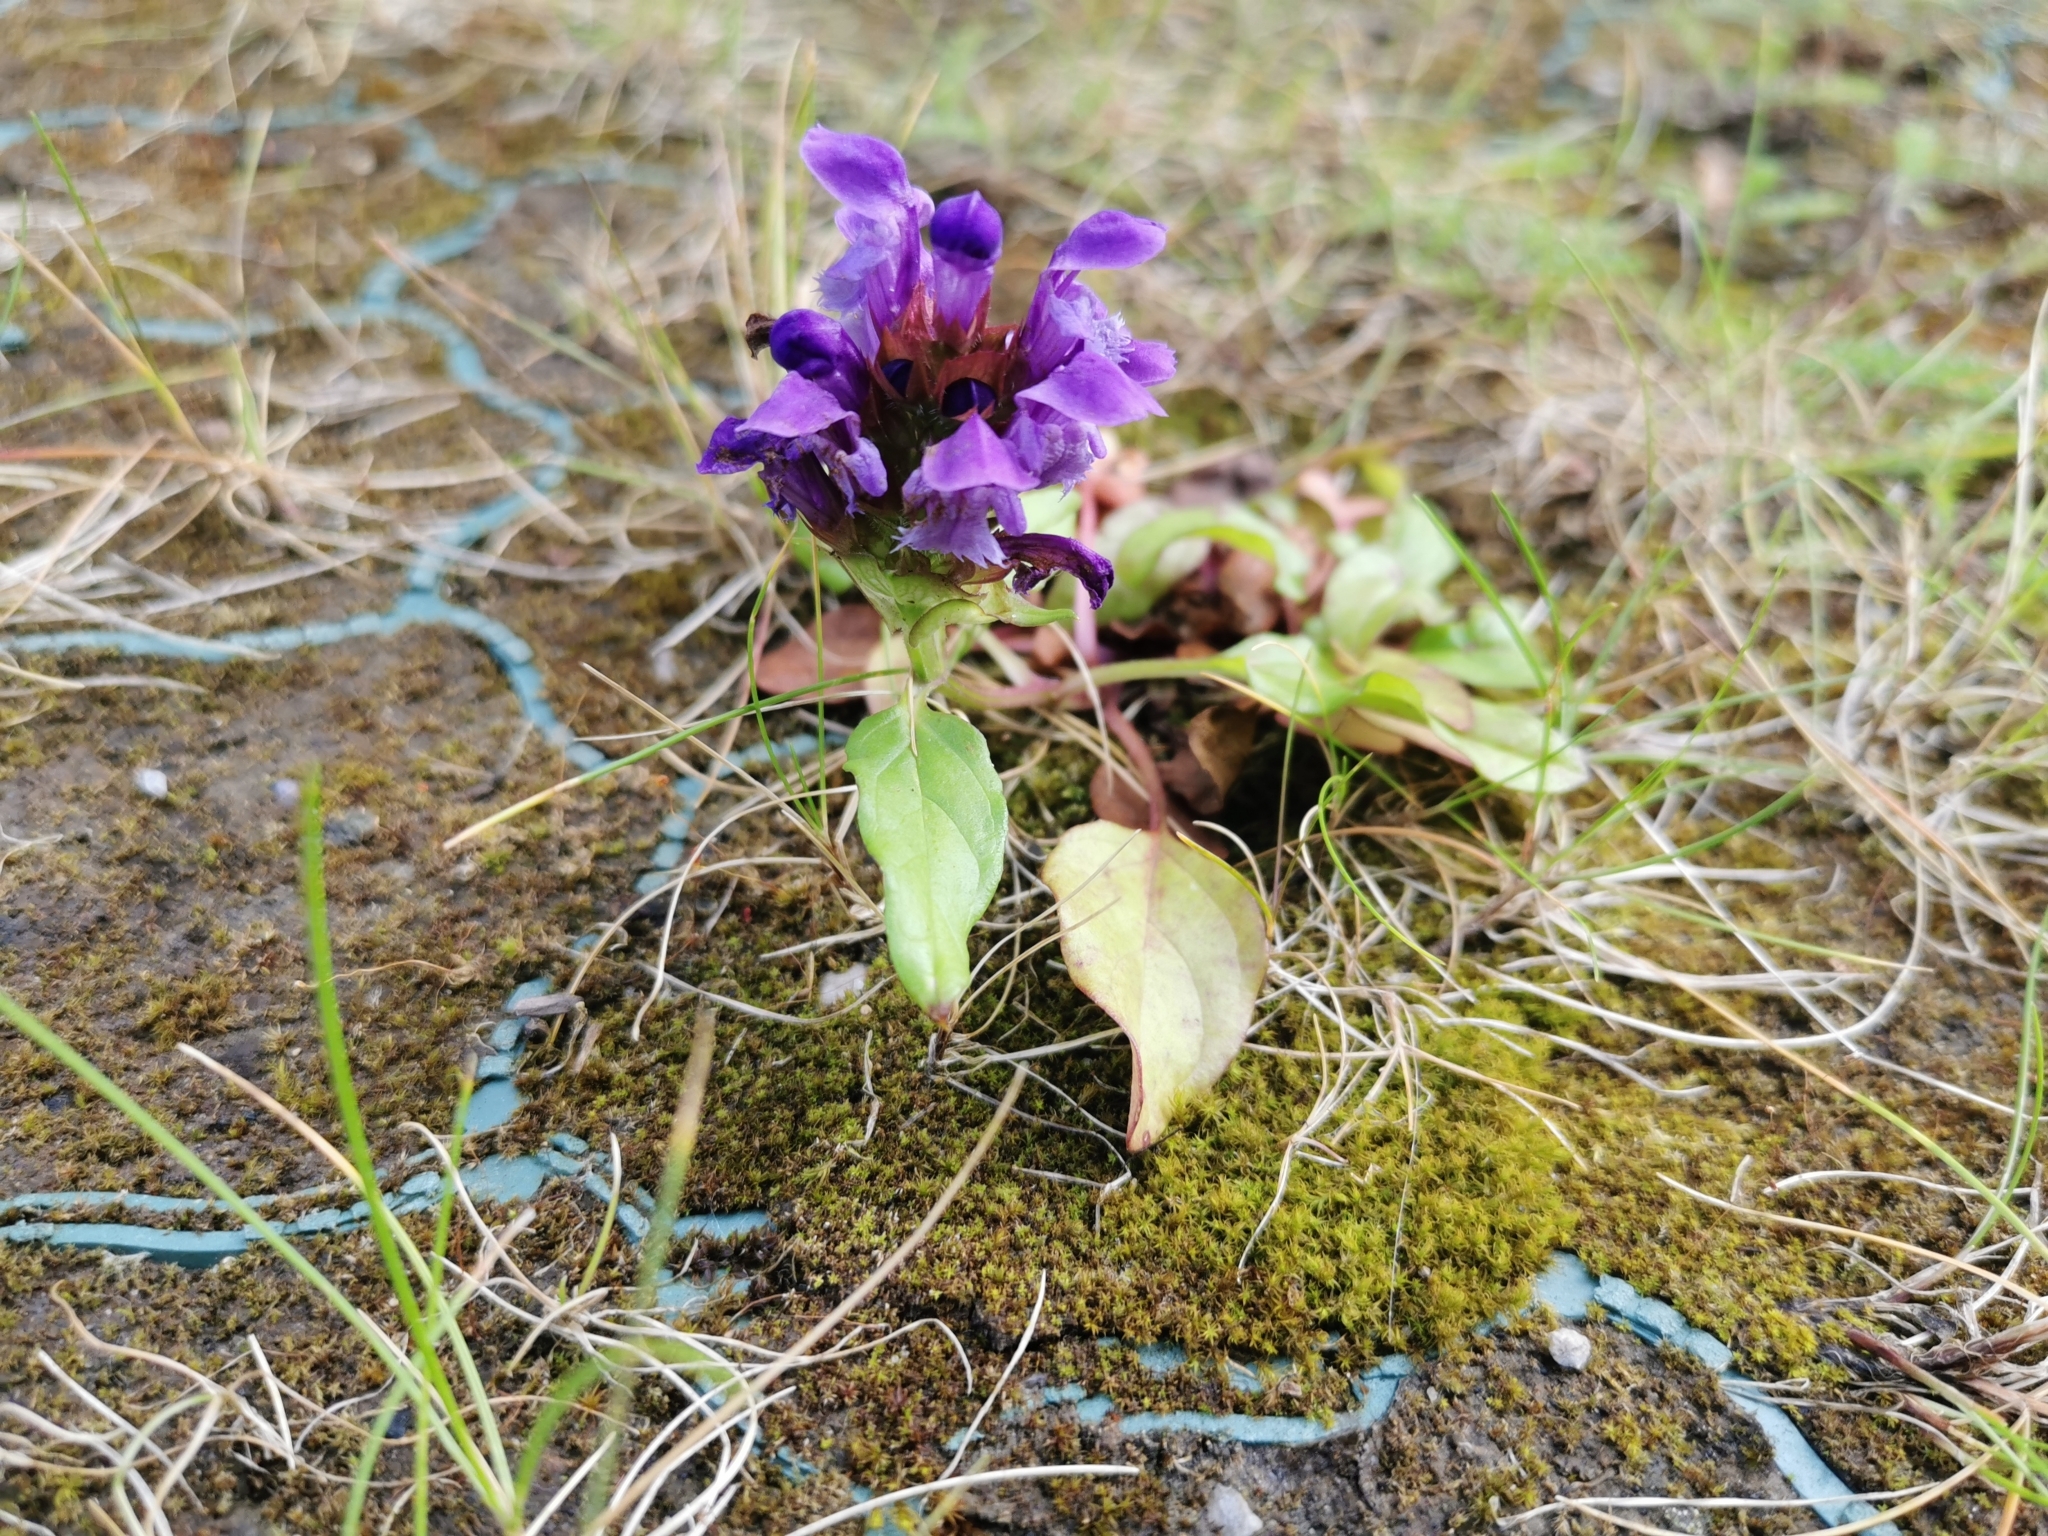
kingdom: Plantae
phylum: Tracheophyta
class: Magnoliopsida
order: Lamiales
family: Lamiaceae
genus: Prunella
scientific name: Prunella vulgaris
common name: Heal-all
